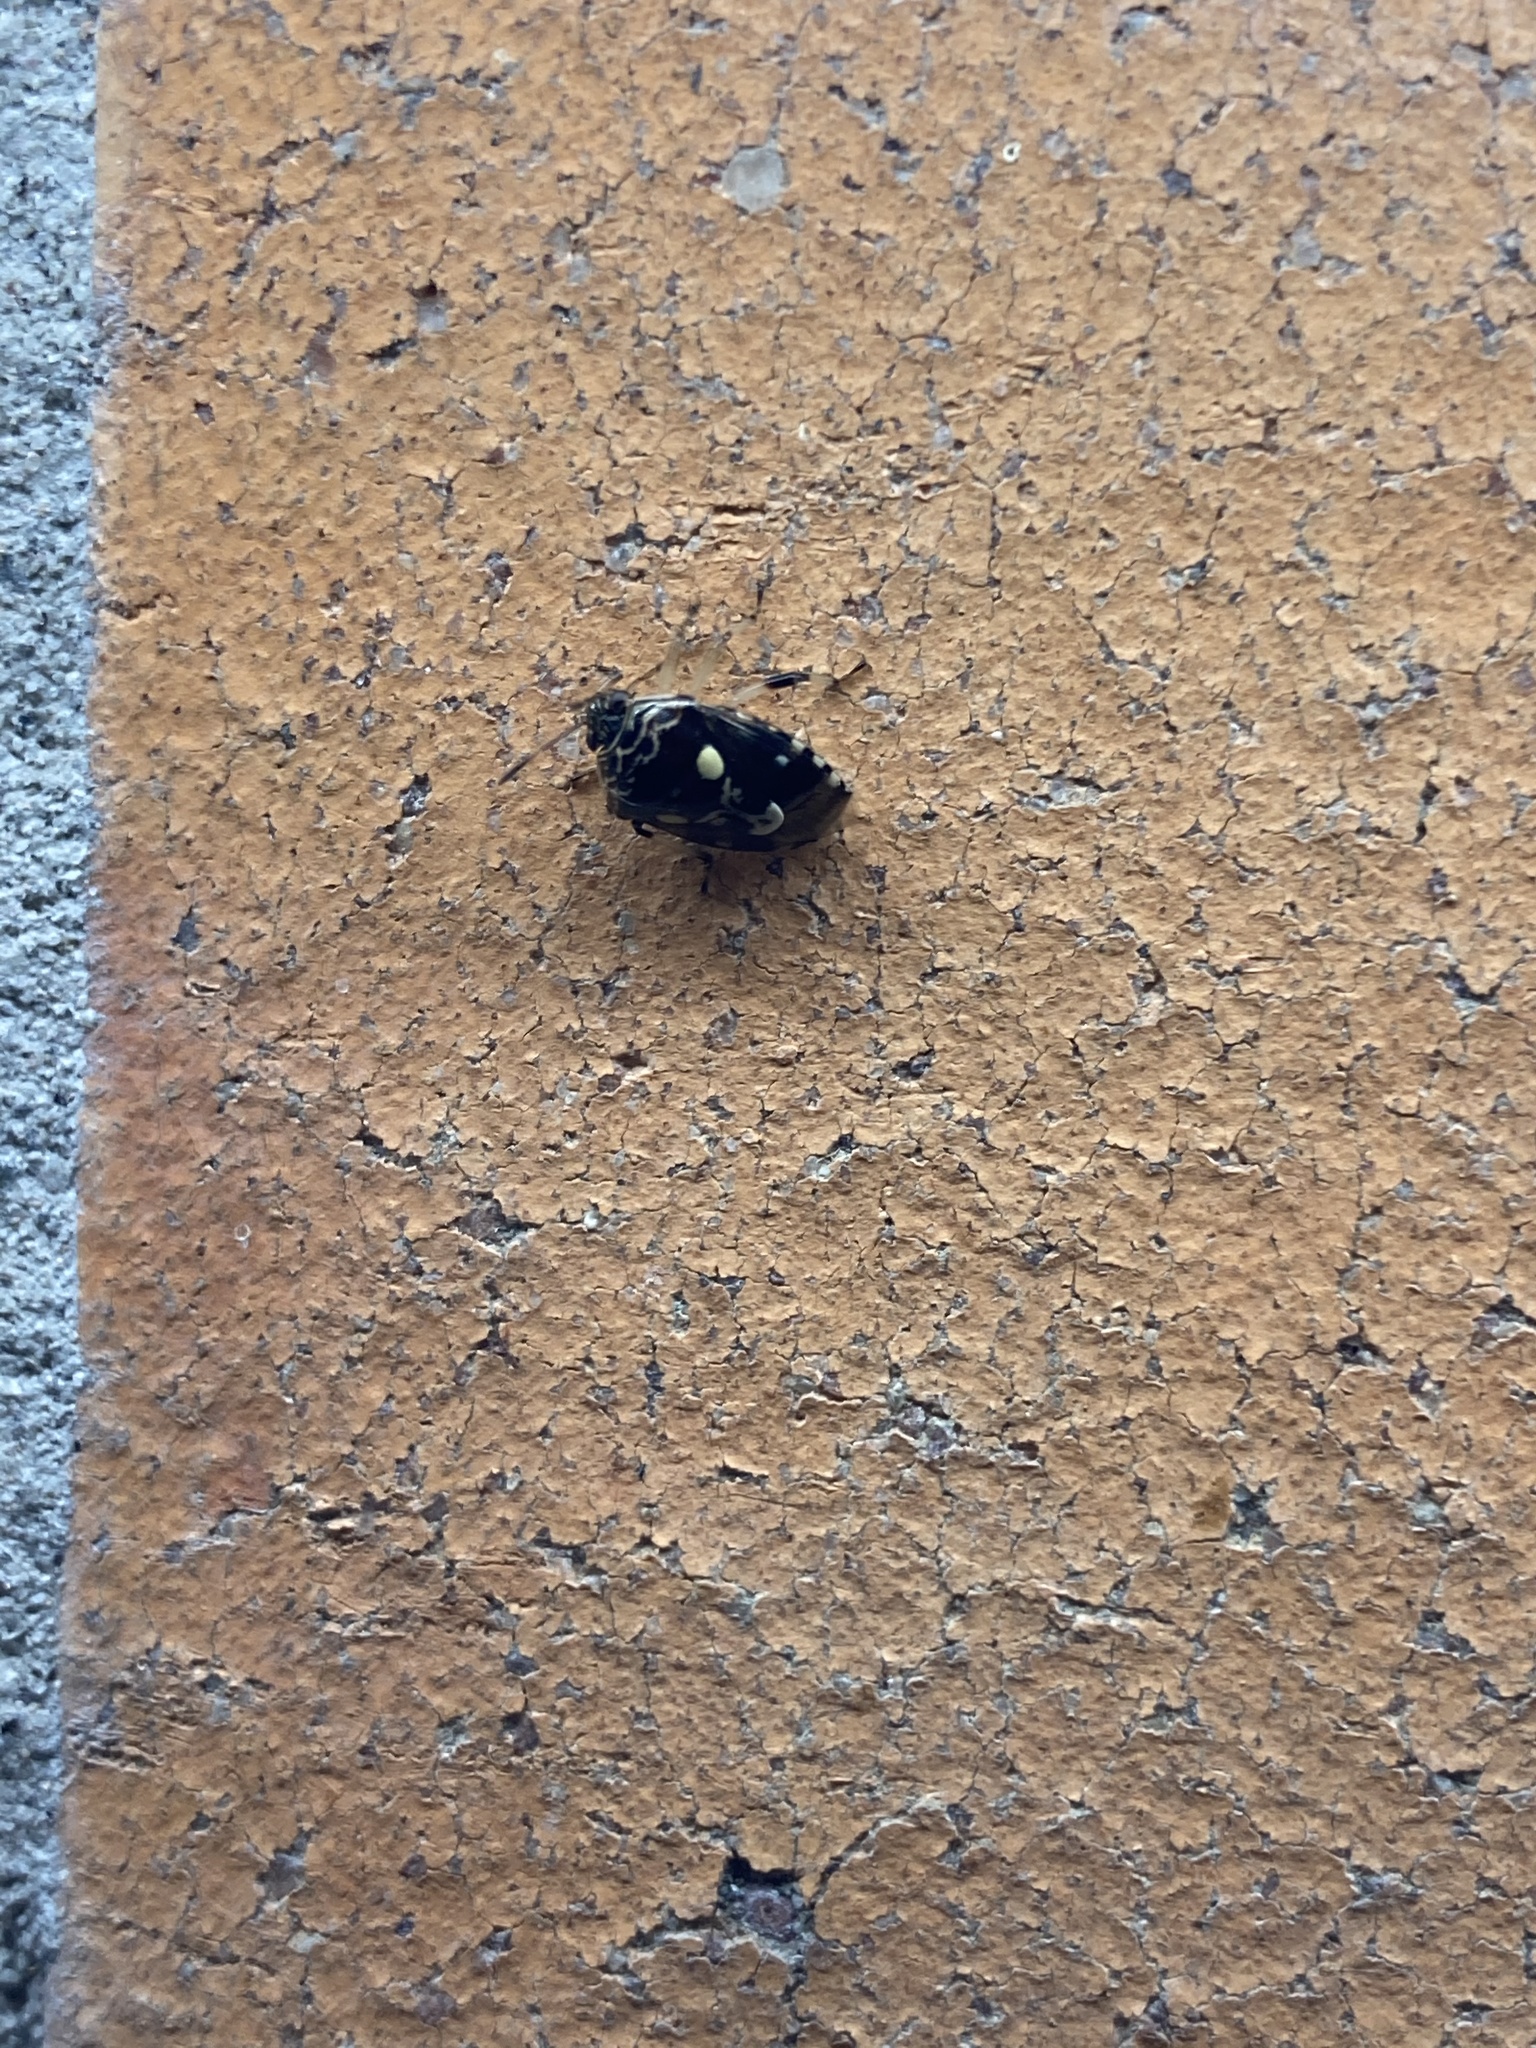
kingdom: Animalia
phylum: Arthropoda
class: Insecta
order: Hemiptera
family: Pentatomidae
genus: Menida
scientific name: Menida formosa
